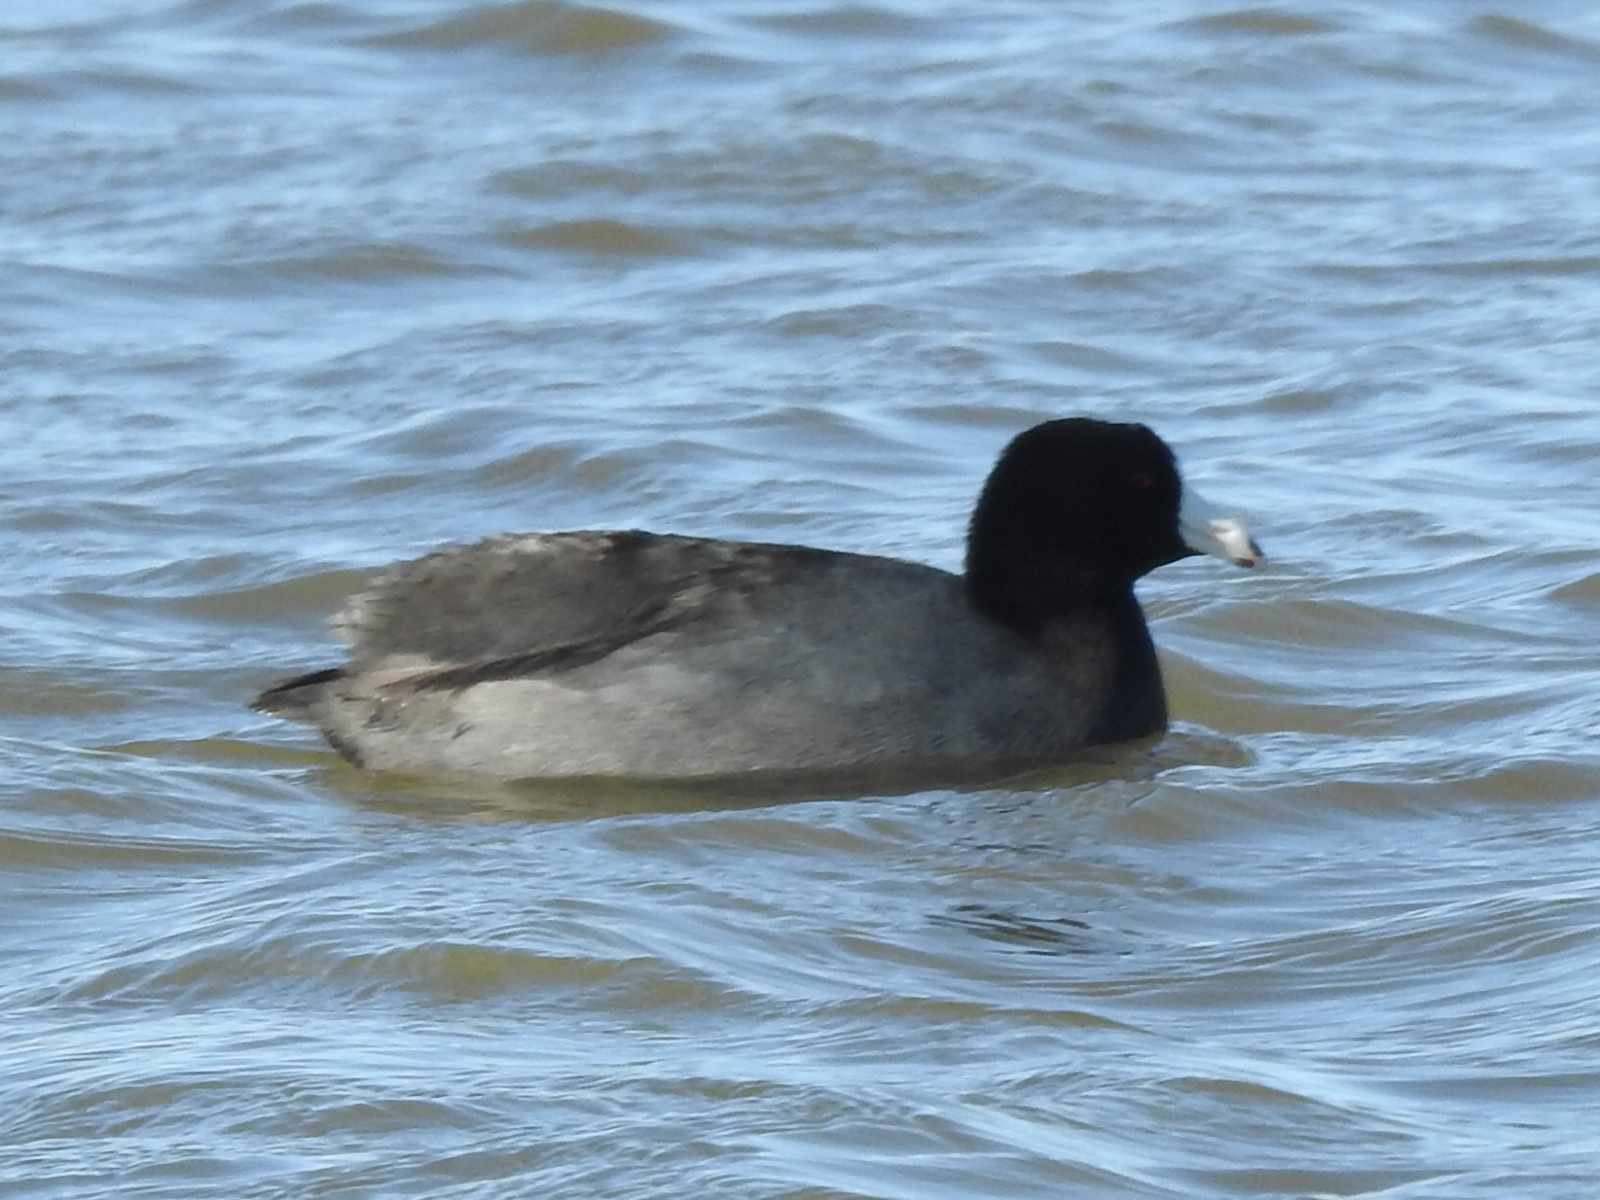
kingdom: Animalia
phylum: Chordata
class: Aves
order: Gruiformes
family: Rallidae
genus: Fulica
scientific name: Fulica americana
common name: American coot
